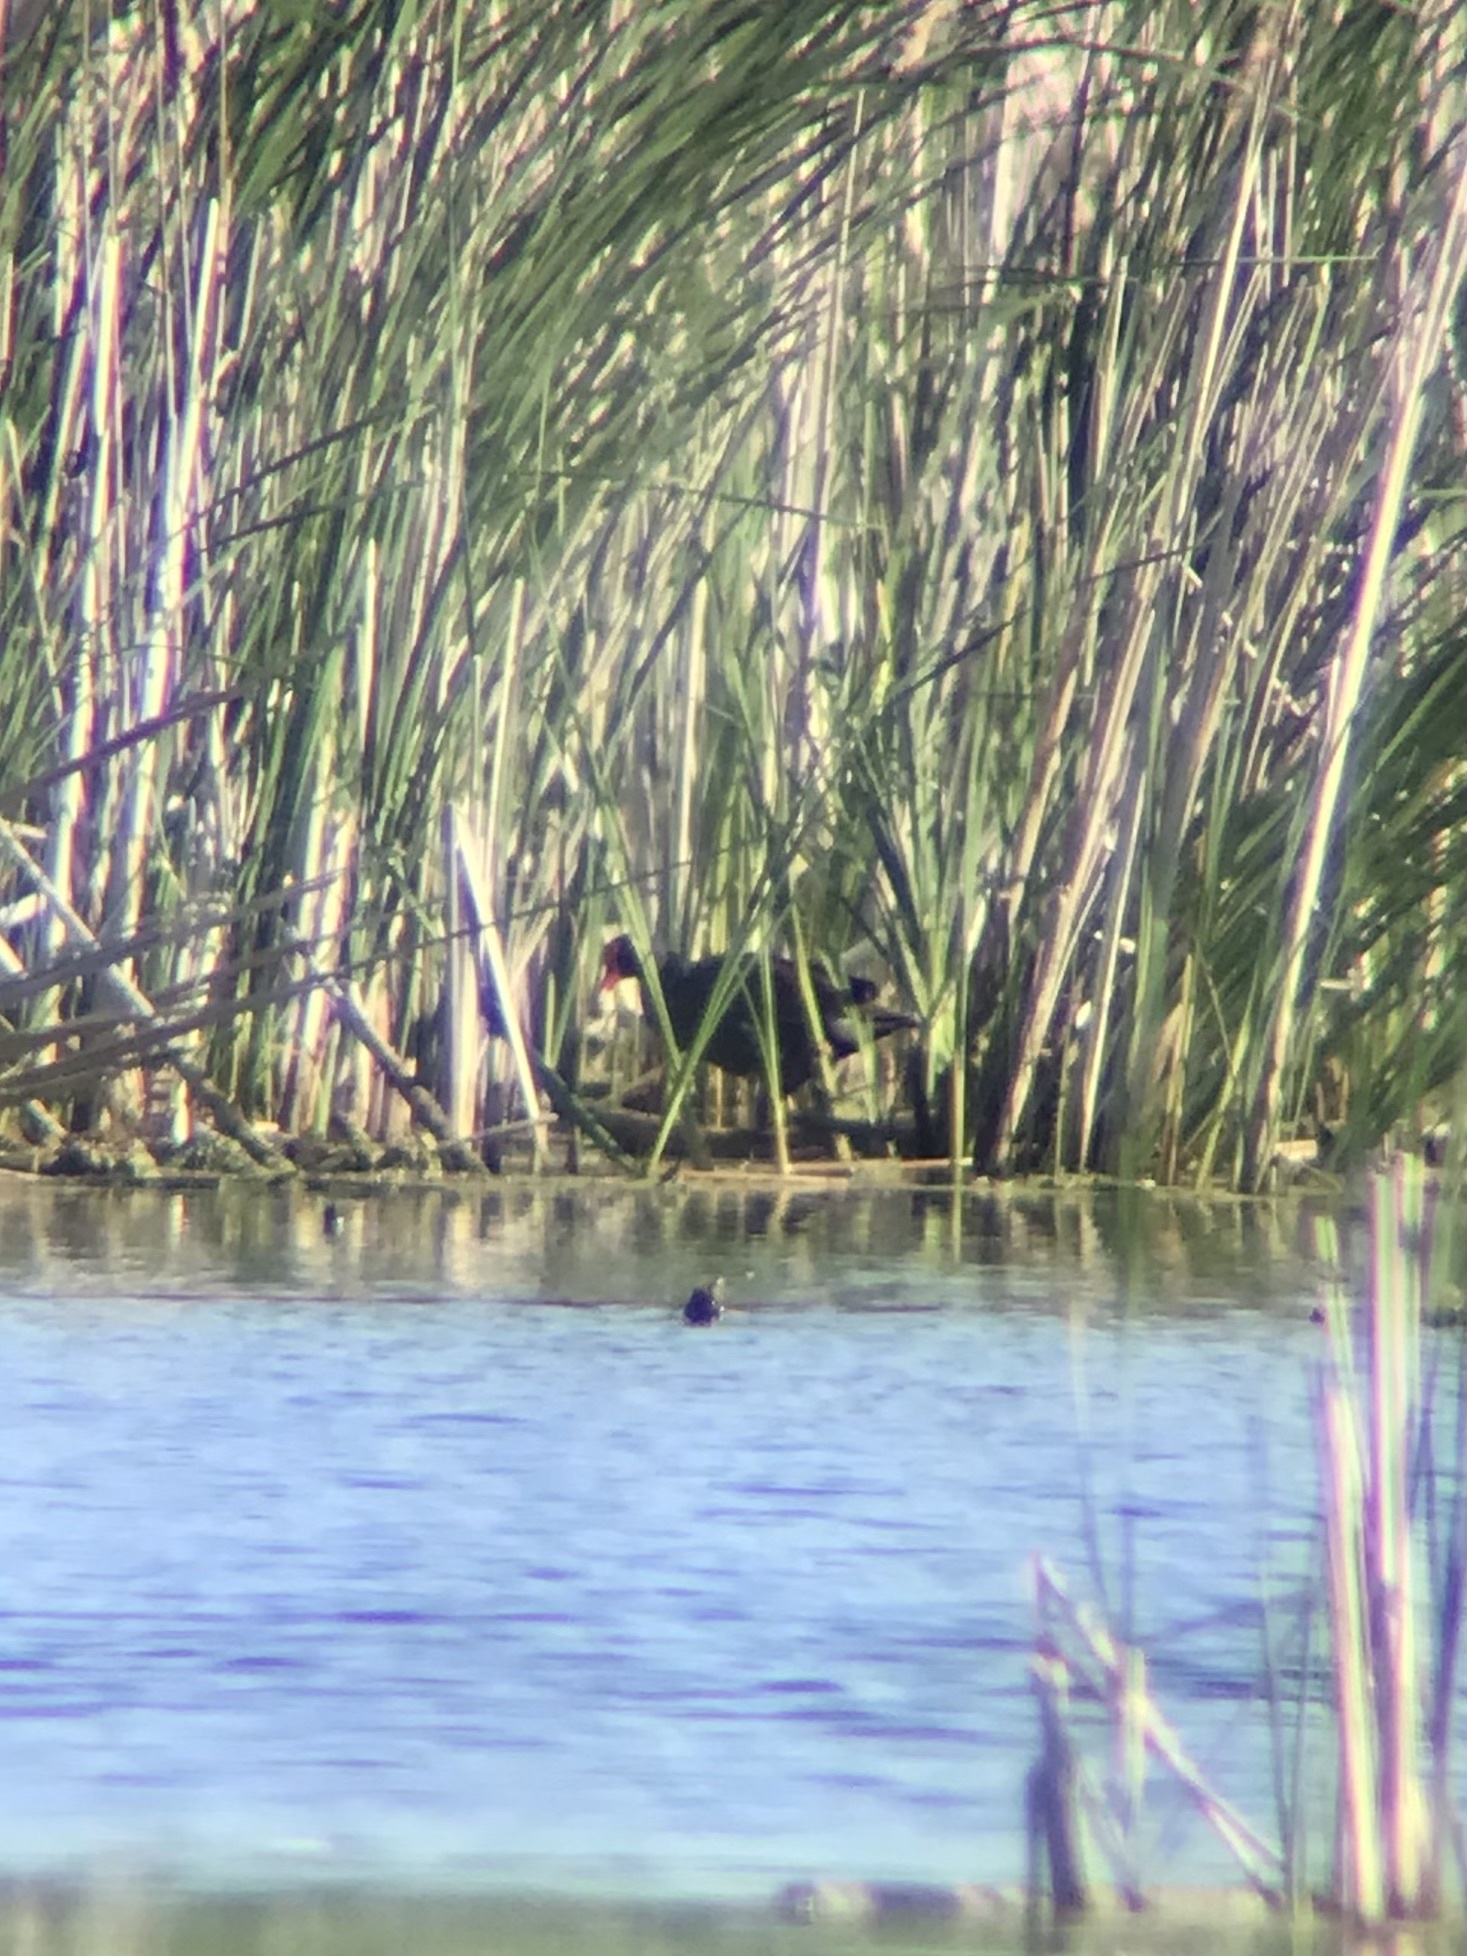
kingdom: Animalia
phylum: Chordata
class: Aves
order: Gruiformes
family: Rallidae
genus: Gallinula
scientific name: Gallinula chloropus
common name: Common moorhen
